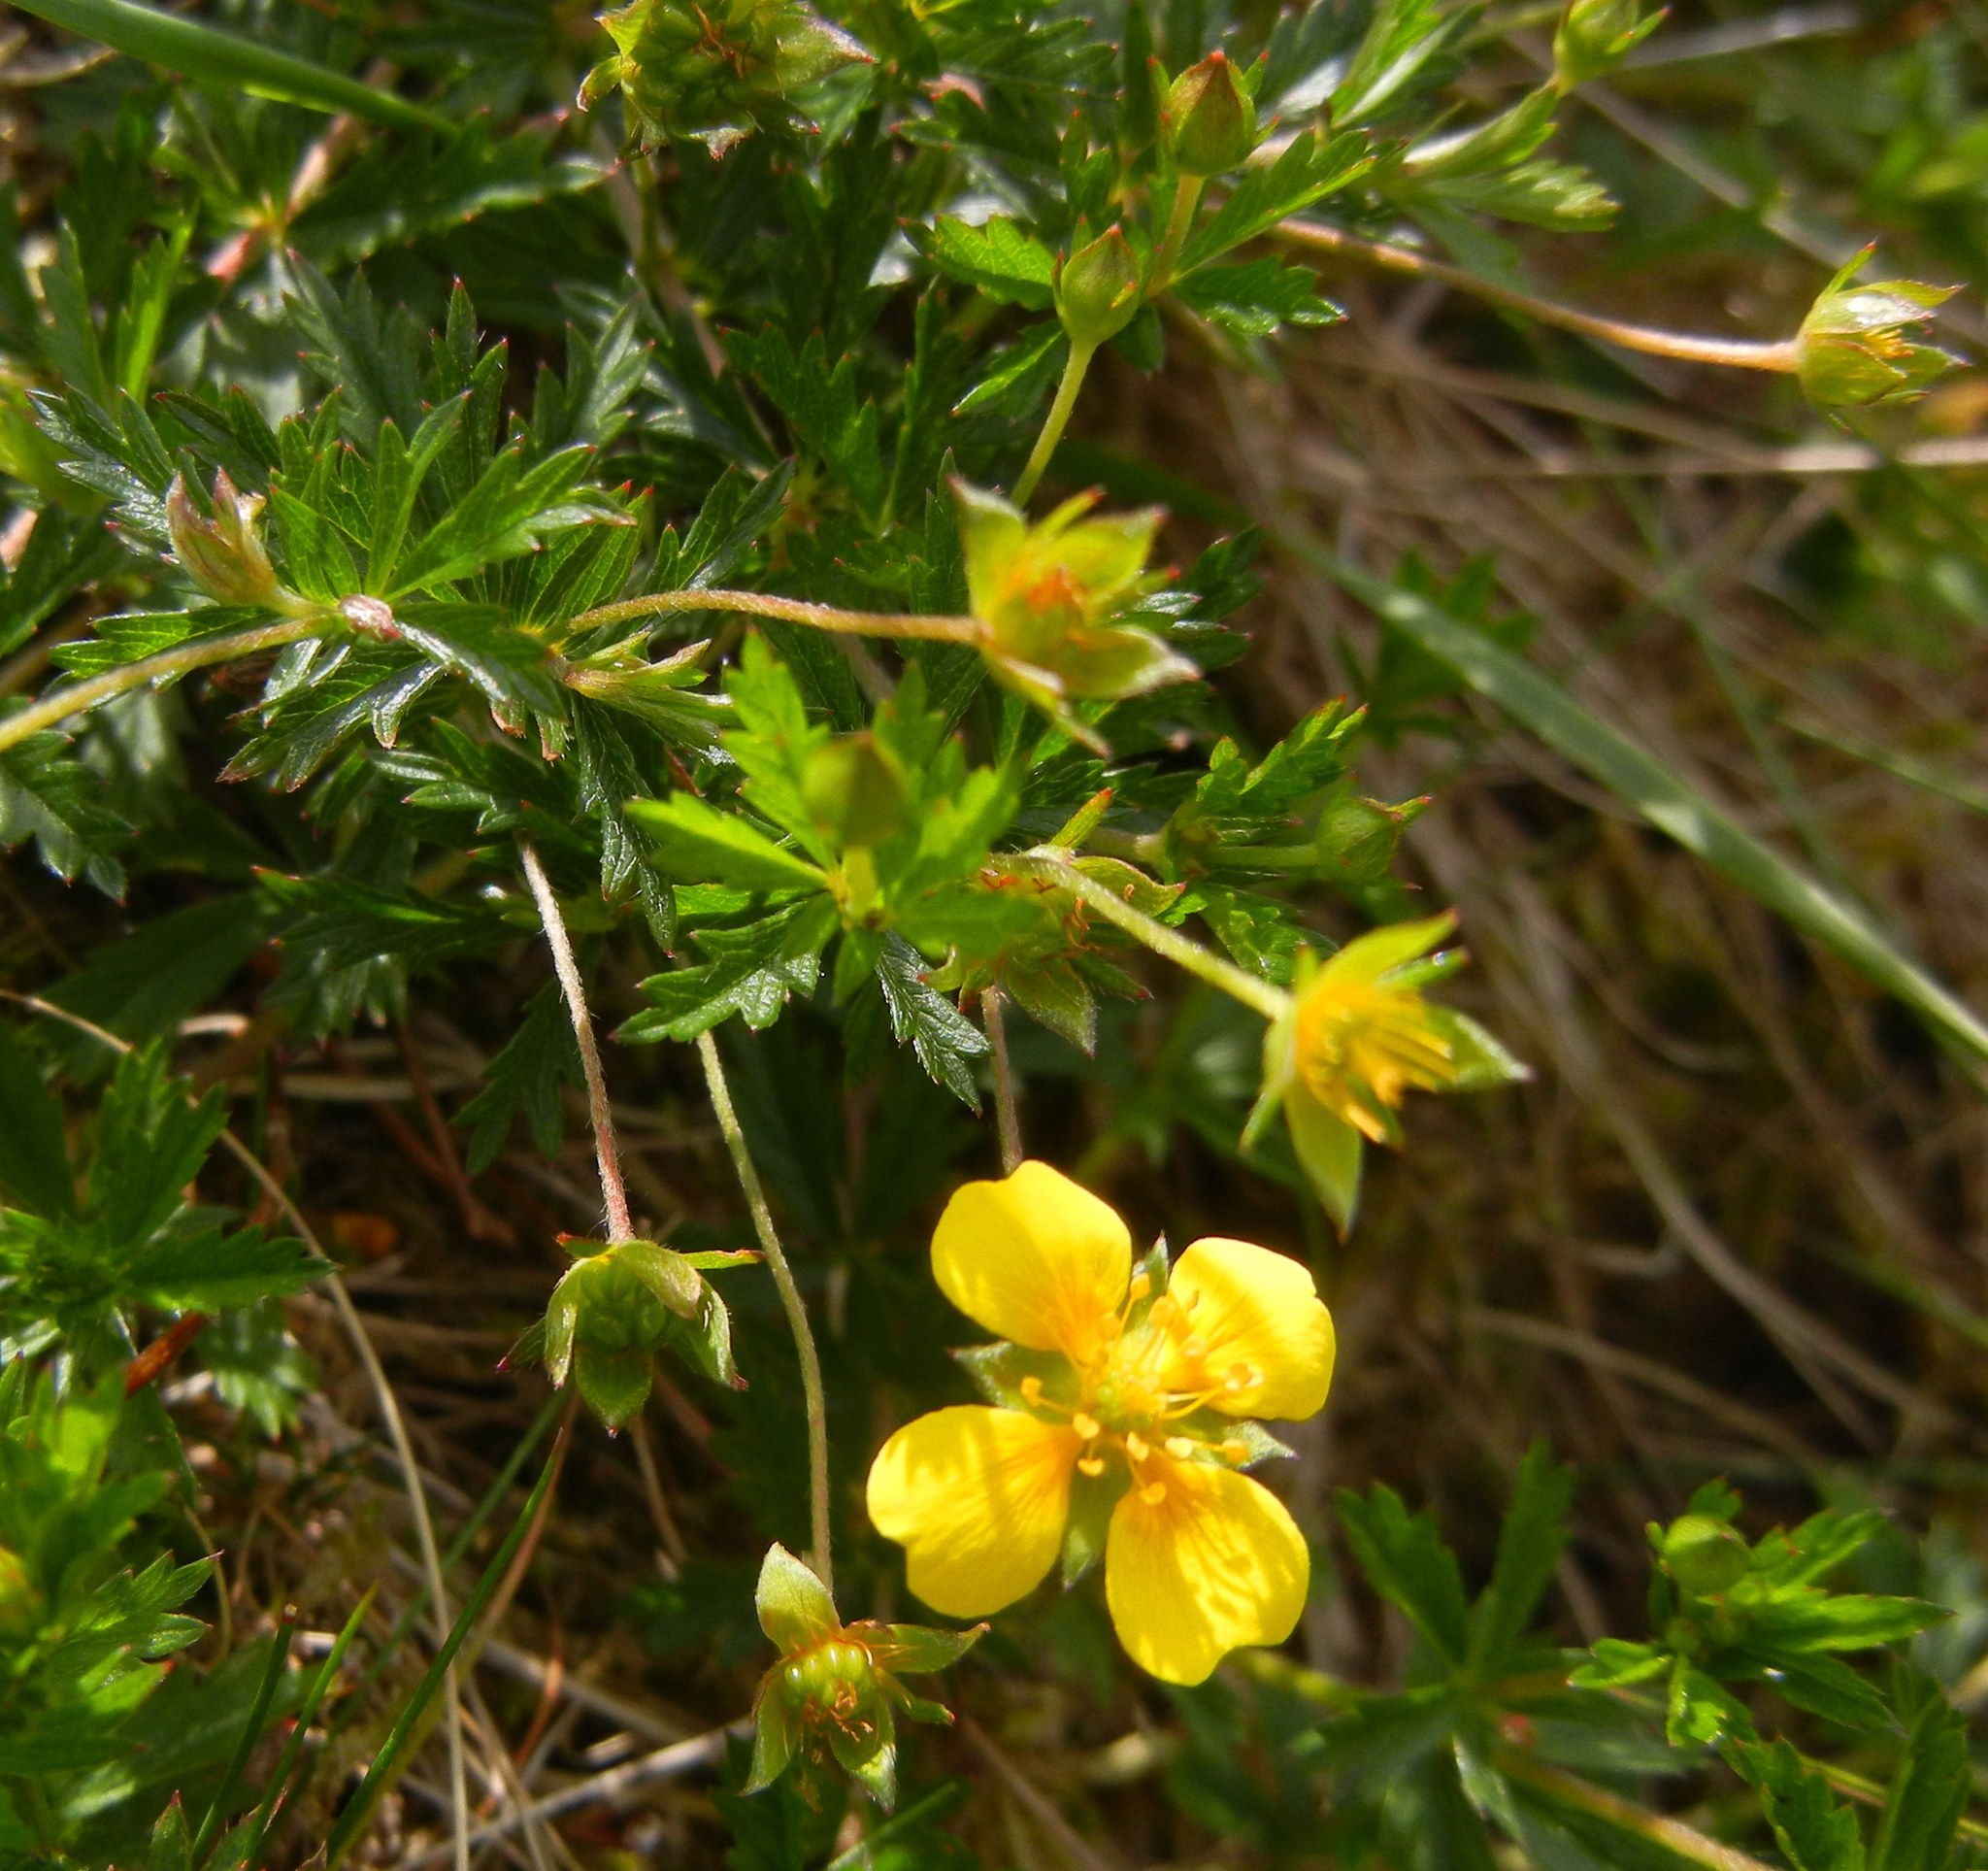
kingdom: Plantae
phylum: Tracheophyta
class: Magnoliopsida
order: Rosales
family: Rosaceae
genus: Potentilla
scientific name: Potentilla erecta
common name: Tormentil
